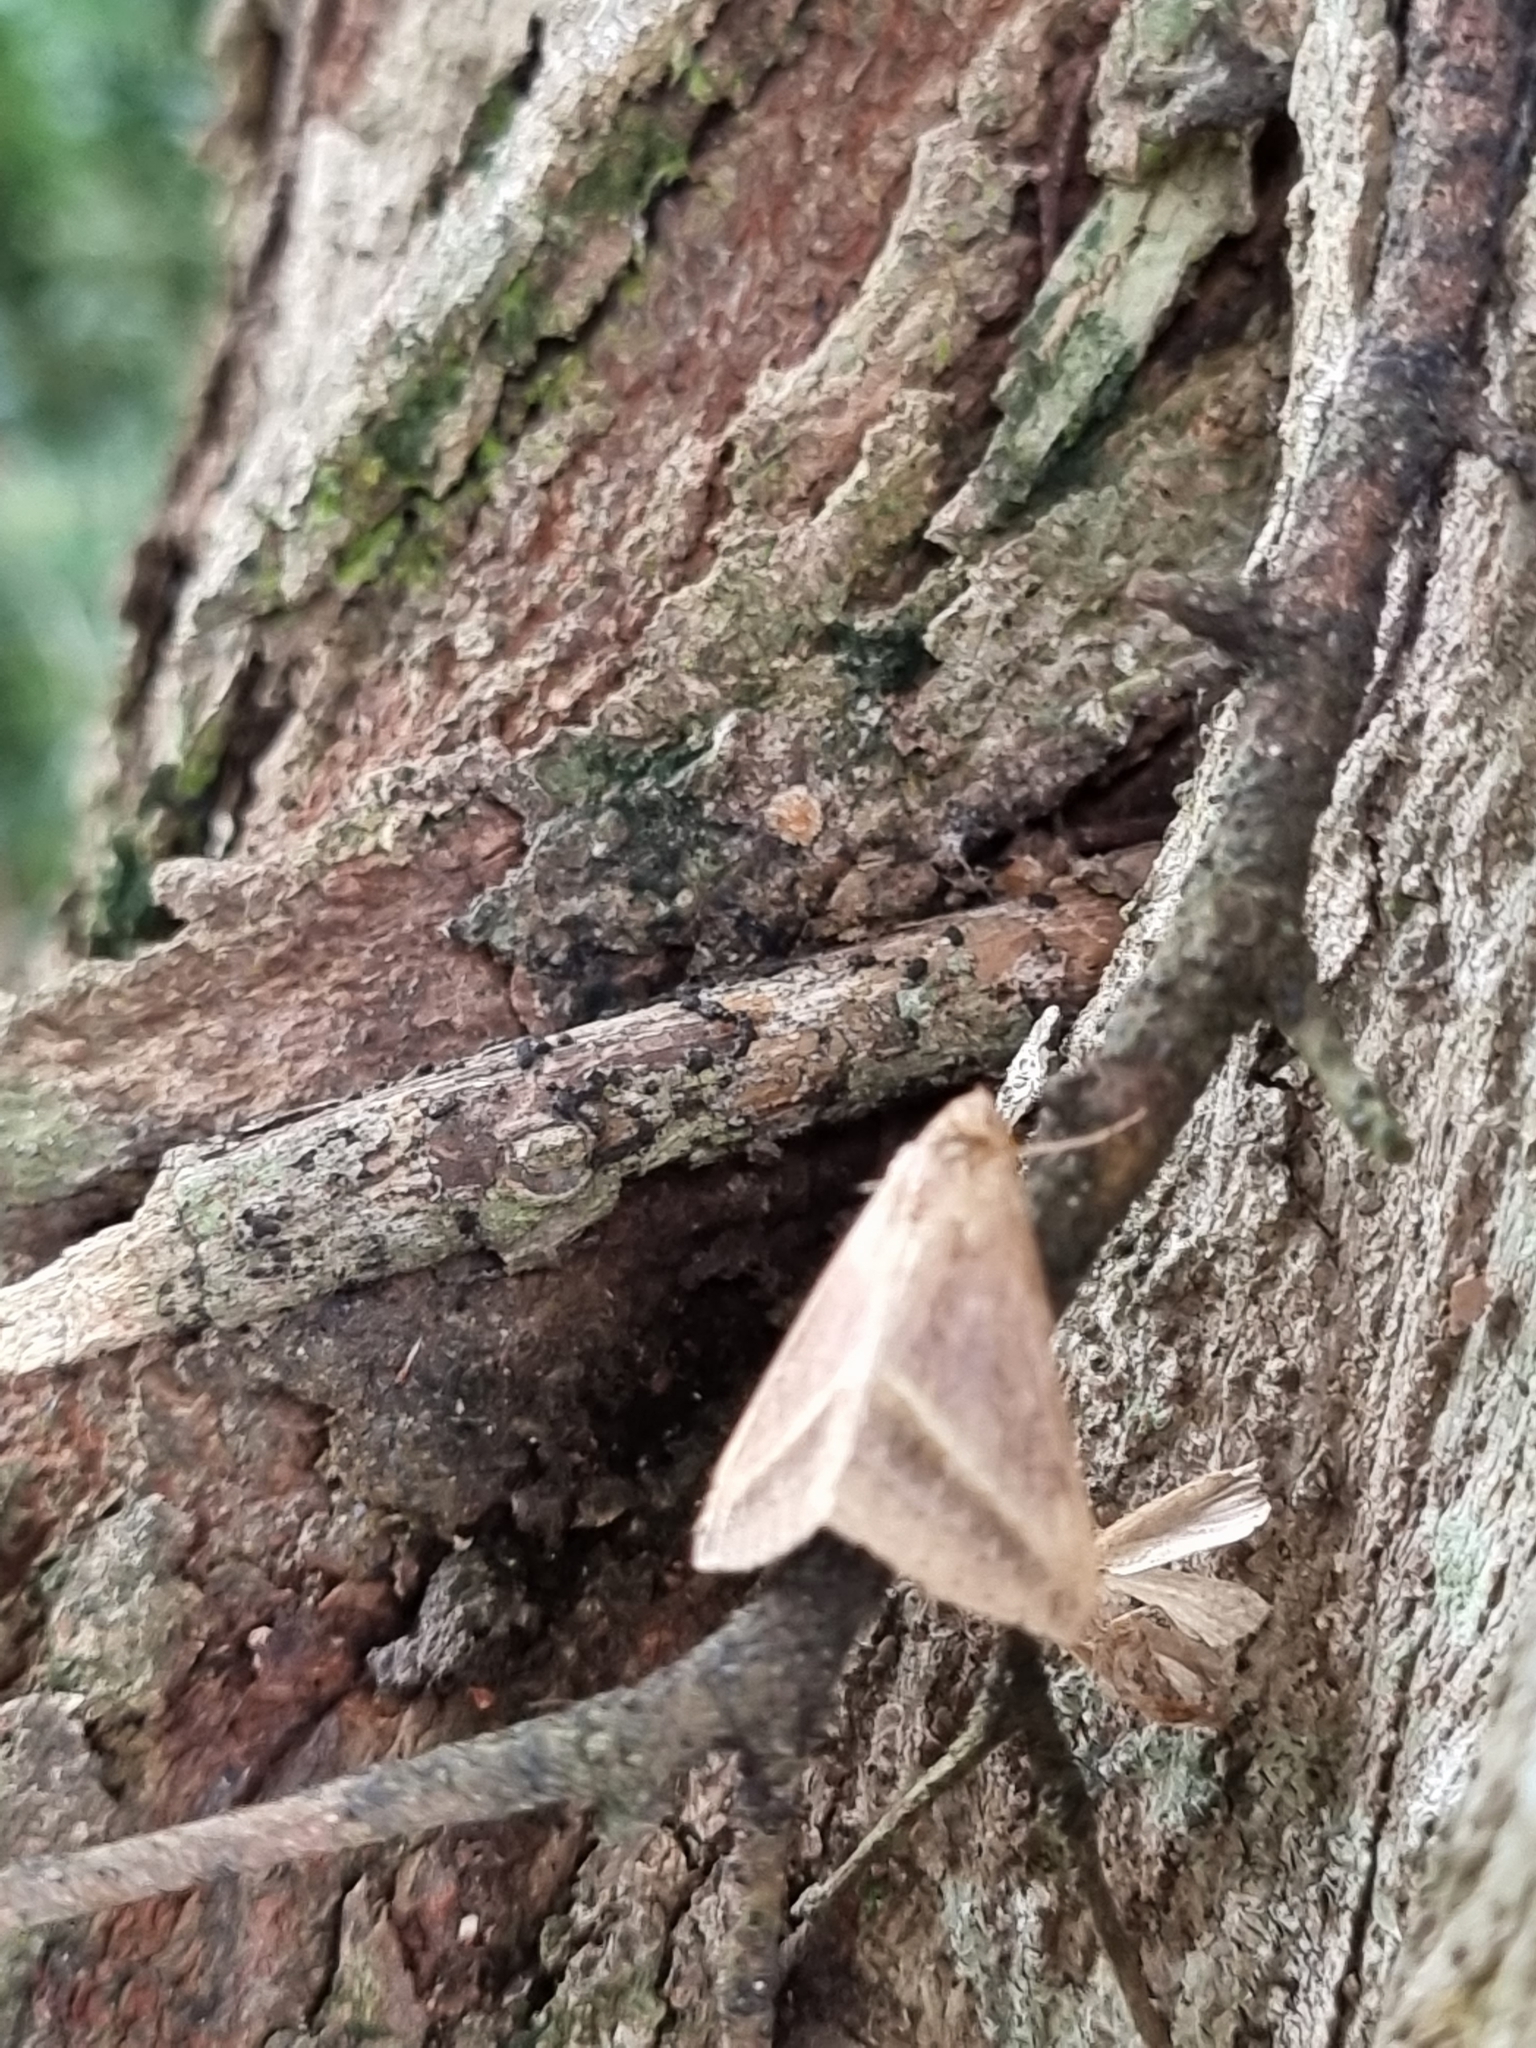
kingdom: Animalia
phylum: Arthropoda
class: Insecta
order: Lepidoptera
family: Erebidae
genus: Mocis
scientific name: Mocis frugalis
